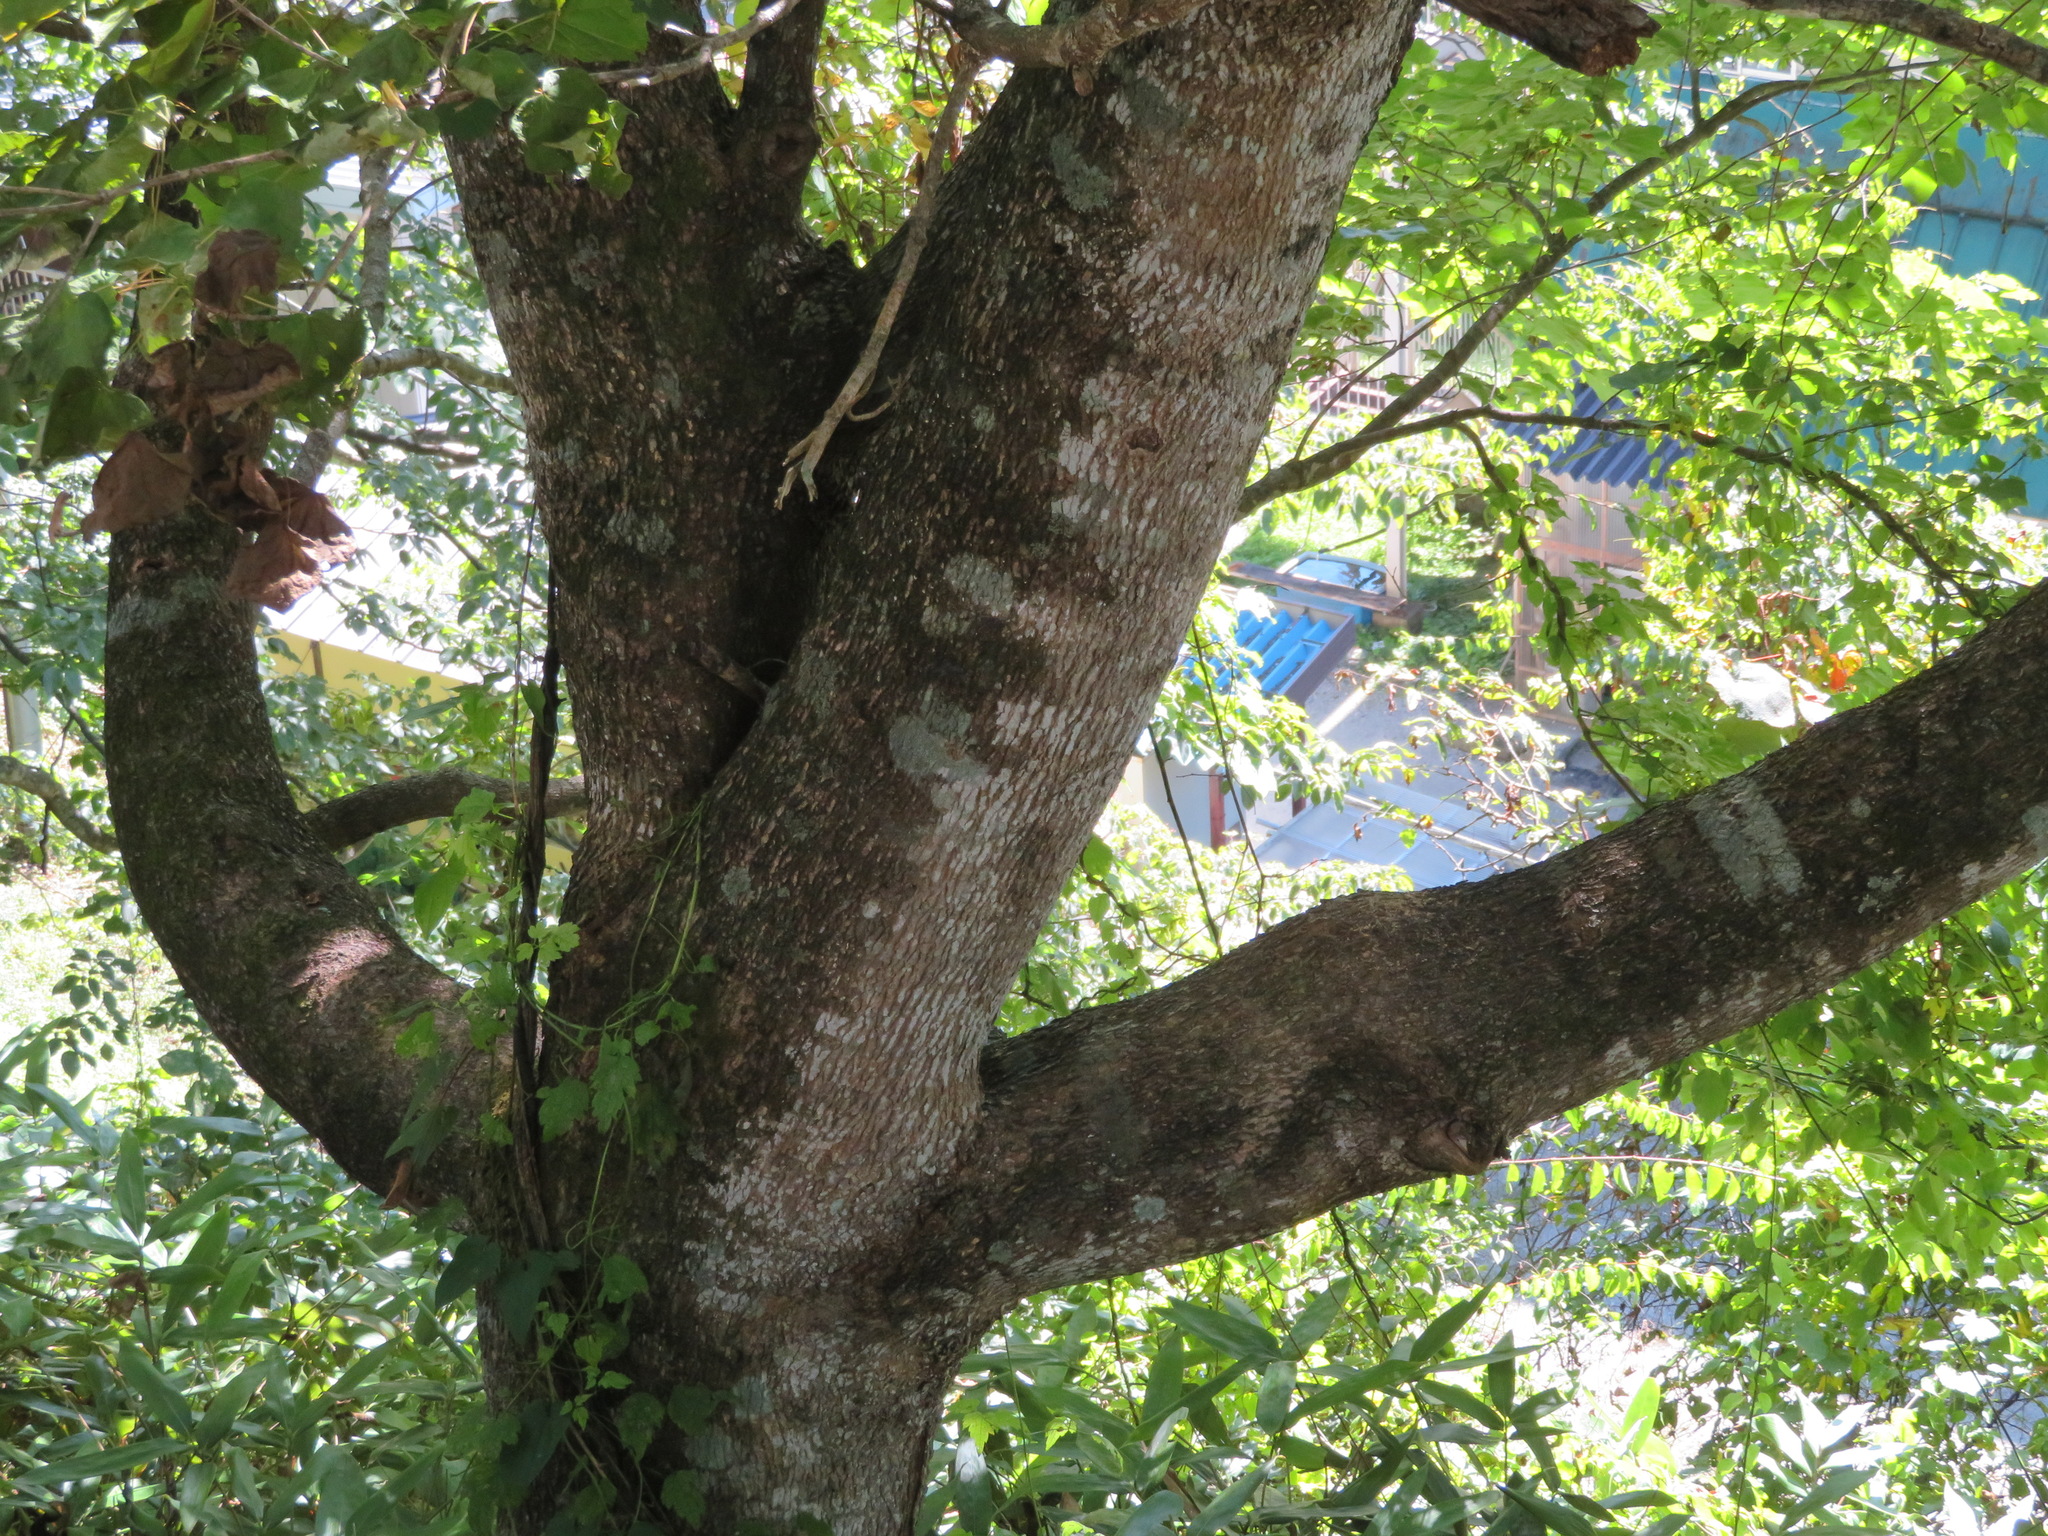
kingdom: Plantae
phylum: Tracheophyta
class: Magnoliopsida
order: Sapindales
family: Sapindaceae
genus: Acer
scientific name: Acer pictum
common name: The painted maple
